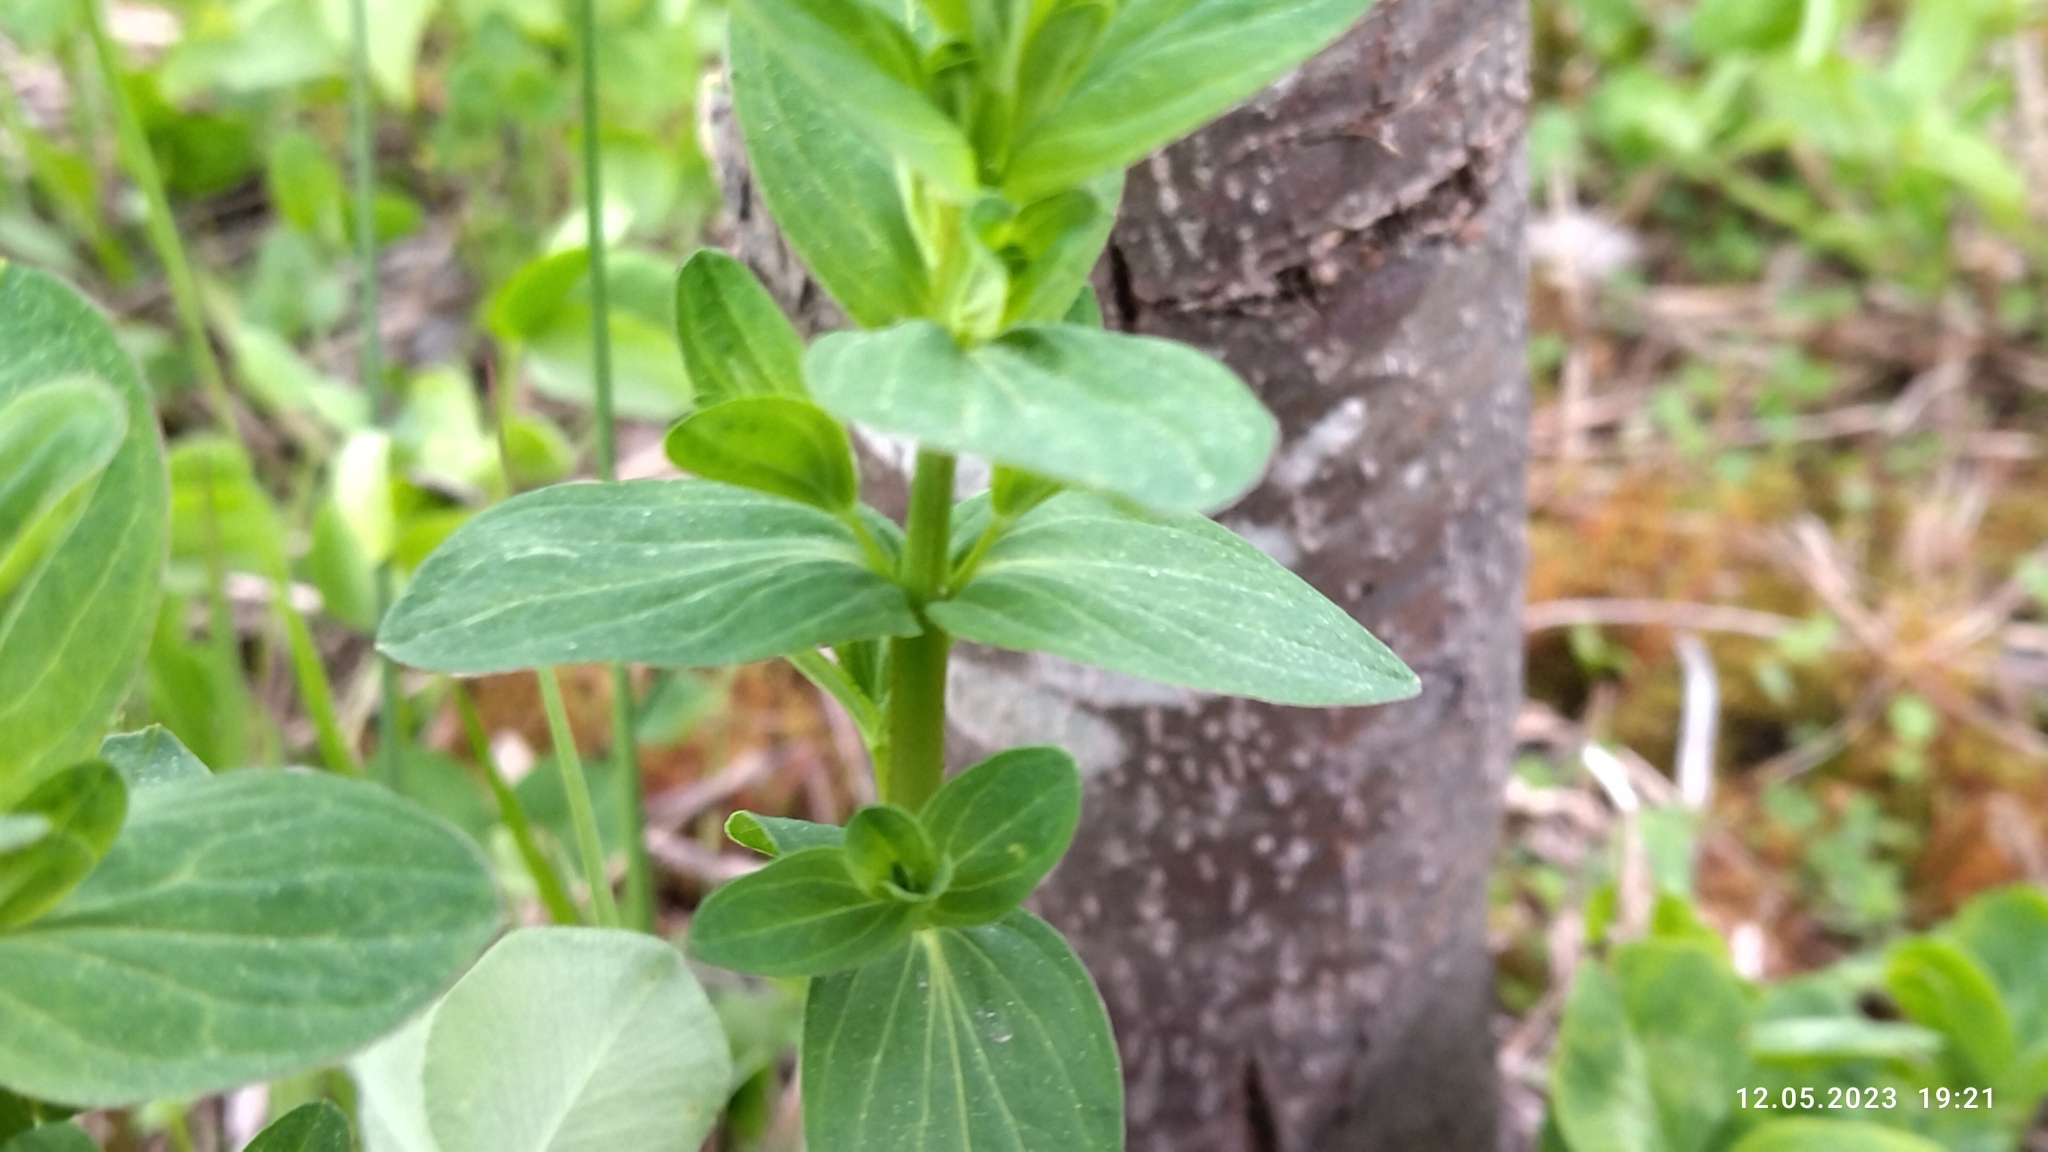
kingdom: Plantae
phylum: Tracheophyta
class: Magnoliopsida
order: Malpighiales
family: Hypericaceae
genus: Hypericum
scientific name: Hypericum maculatum
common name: Imperforate st. john's-wort
